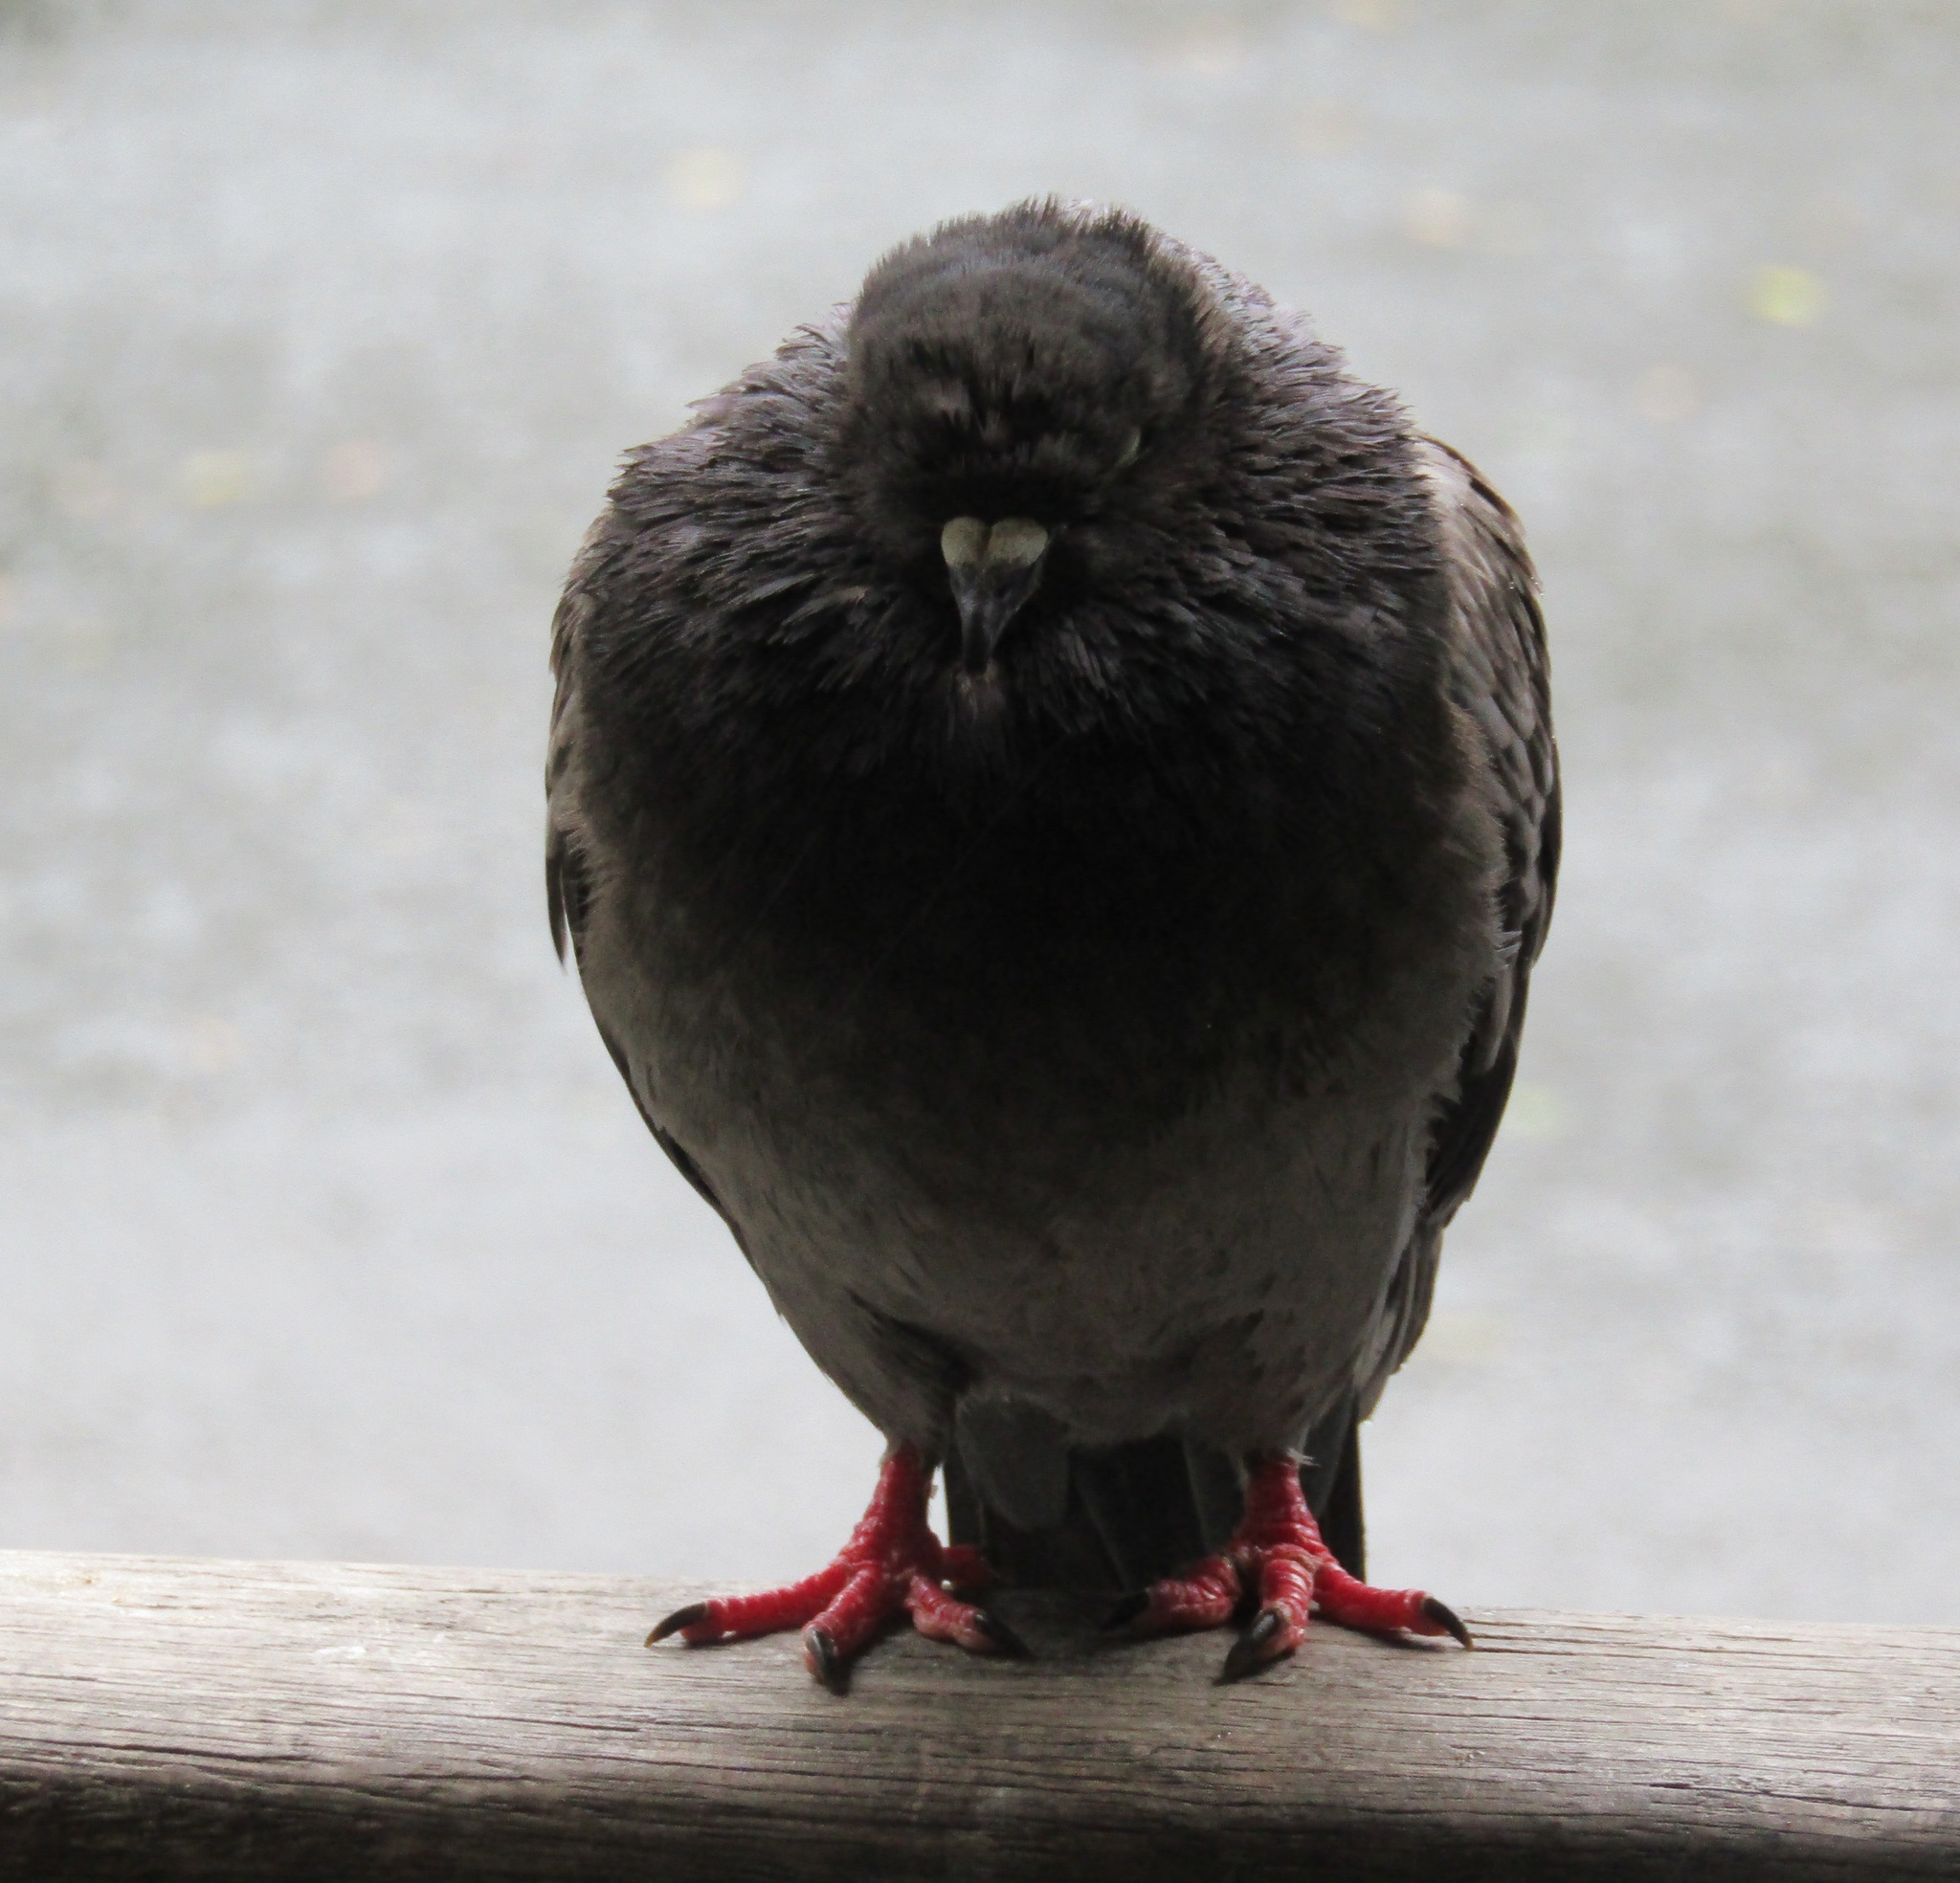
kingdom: Animalia
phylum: Chordata
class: Aves
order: Columbiformes
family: Columbidae
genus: Columba
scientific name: Columba livia
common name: Rock pigeon
